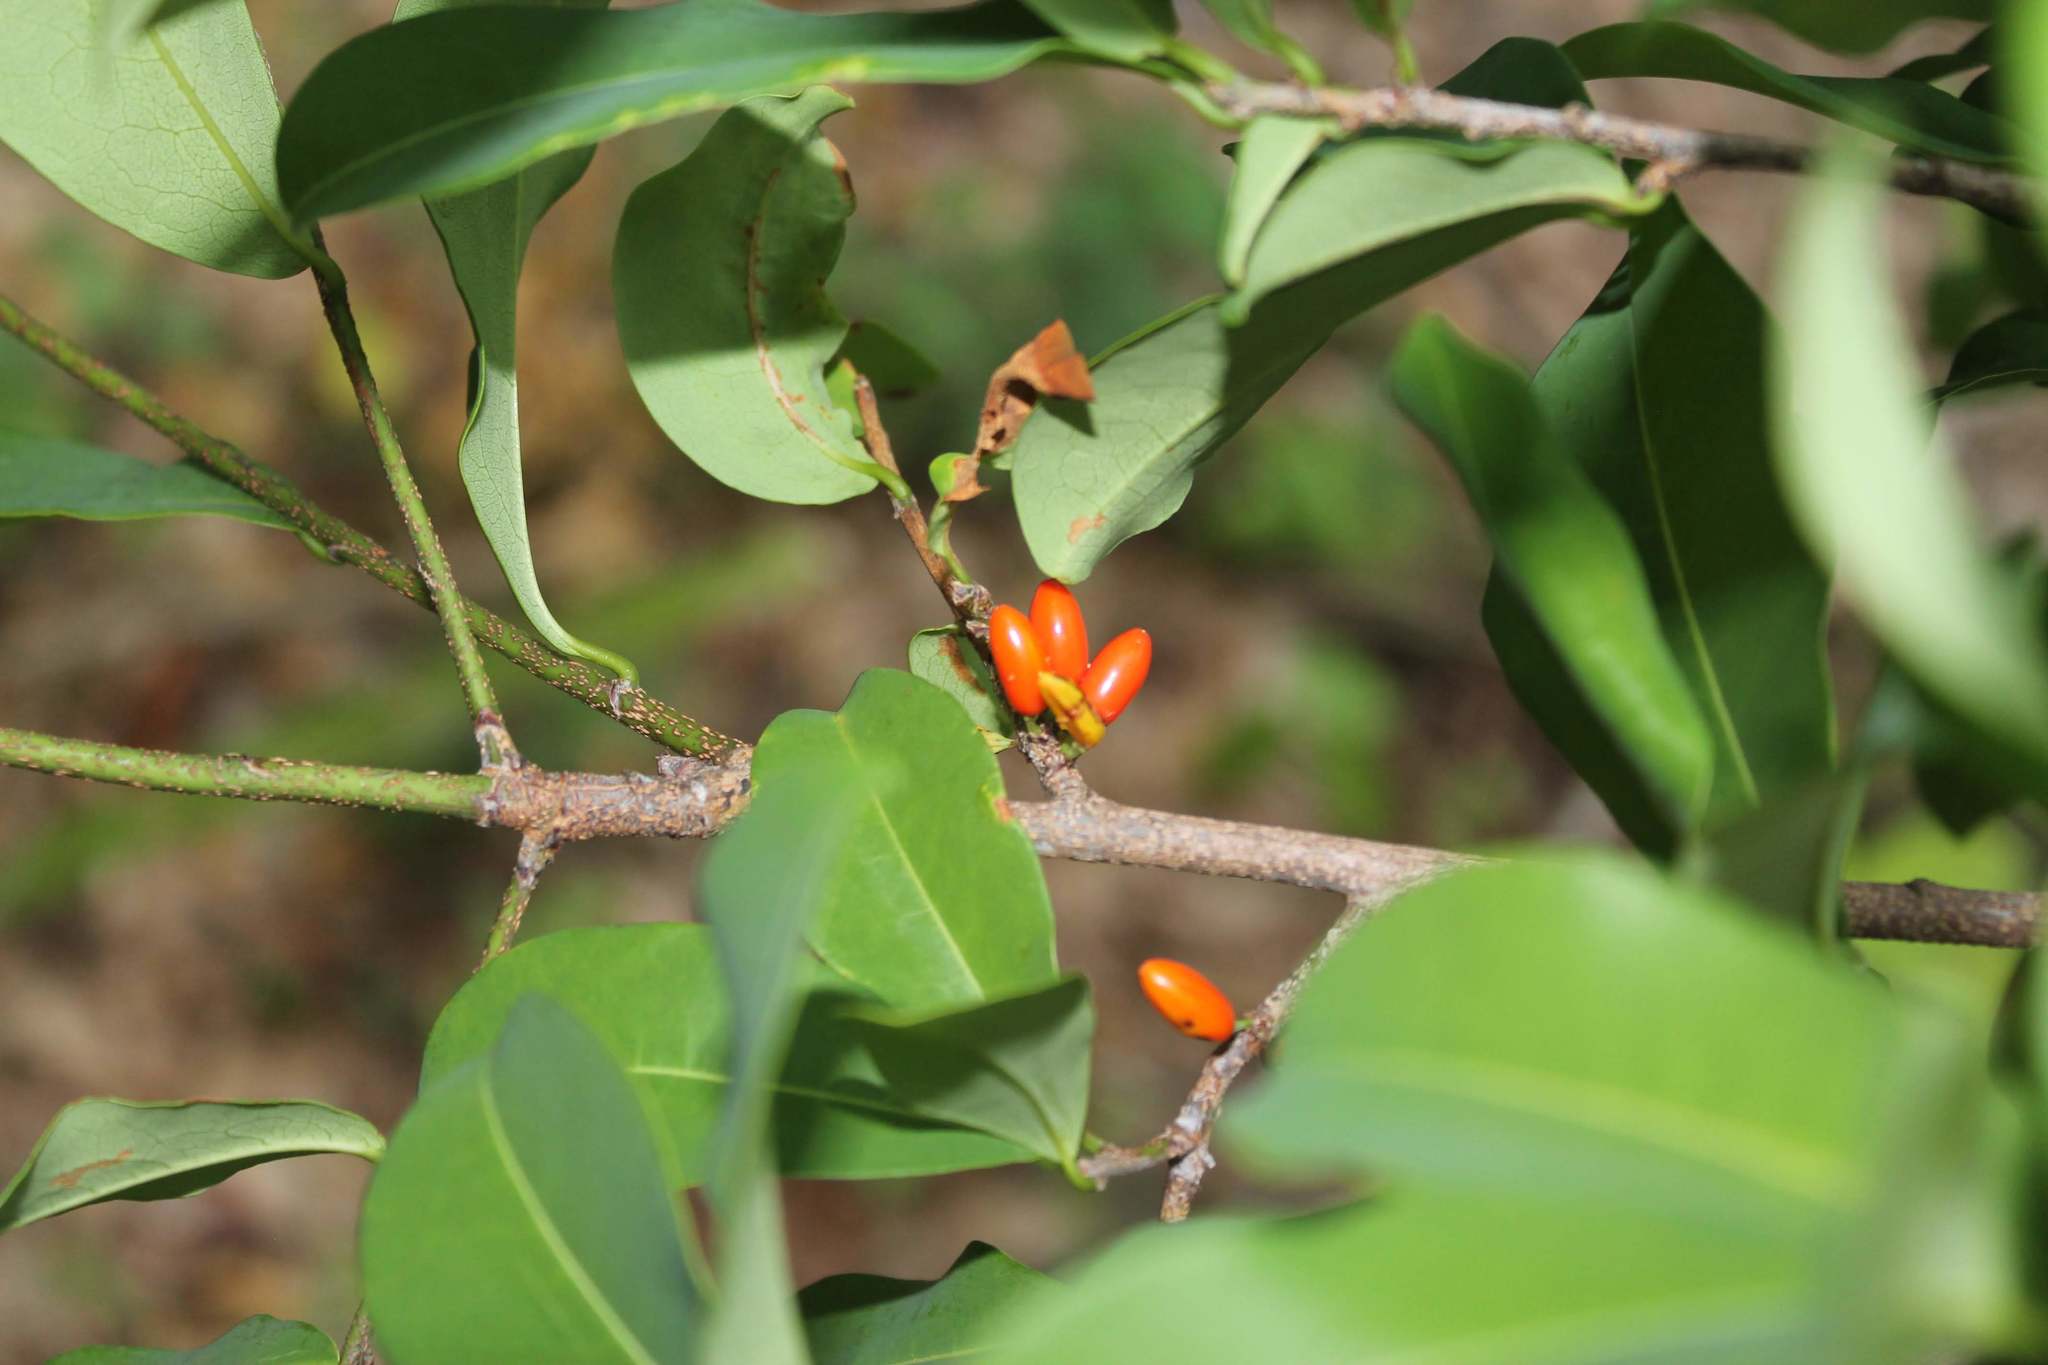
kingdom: Plantae
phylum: Tracheophyta
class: Magnoliopsida
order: Malpighiales
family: Erythroxylaceae
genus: Erythroxylum
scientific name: Erythroxylum mexicanum
